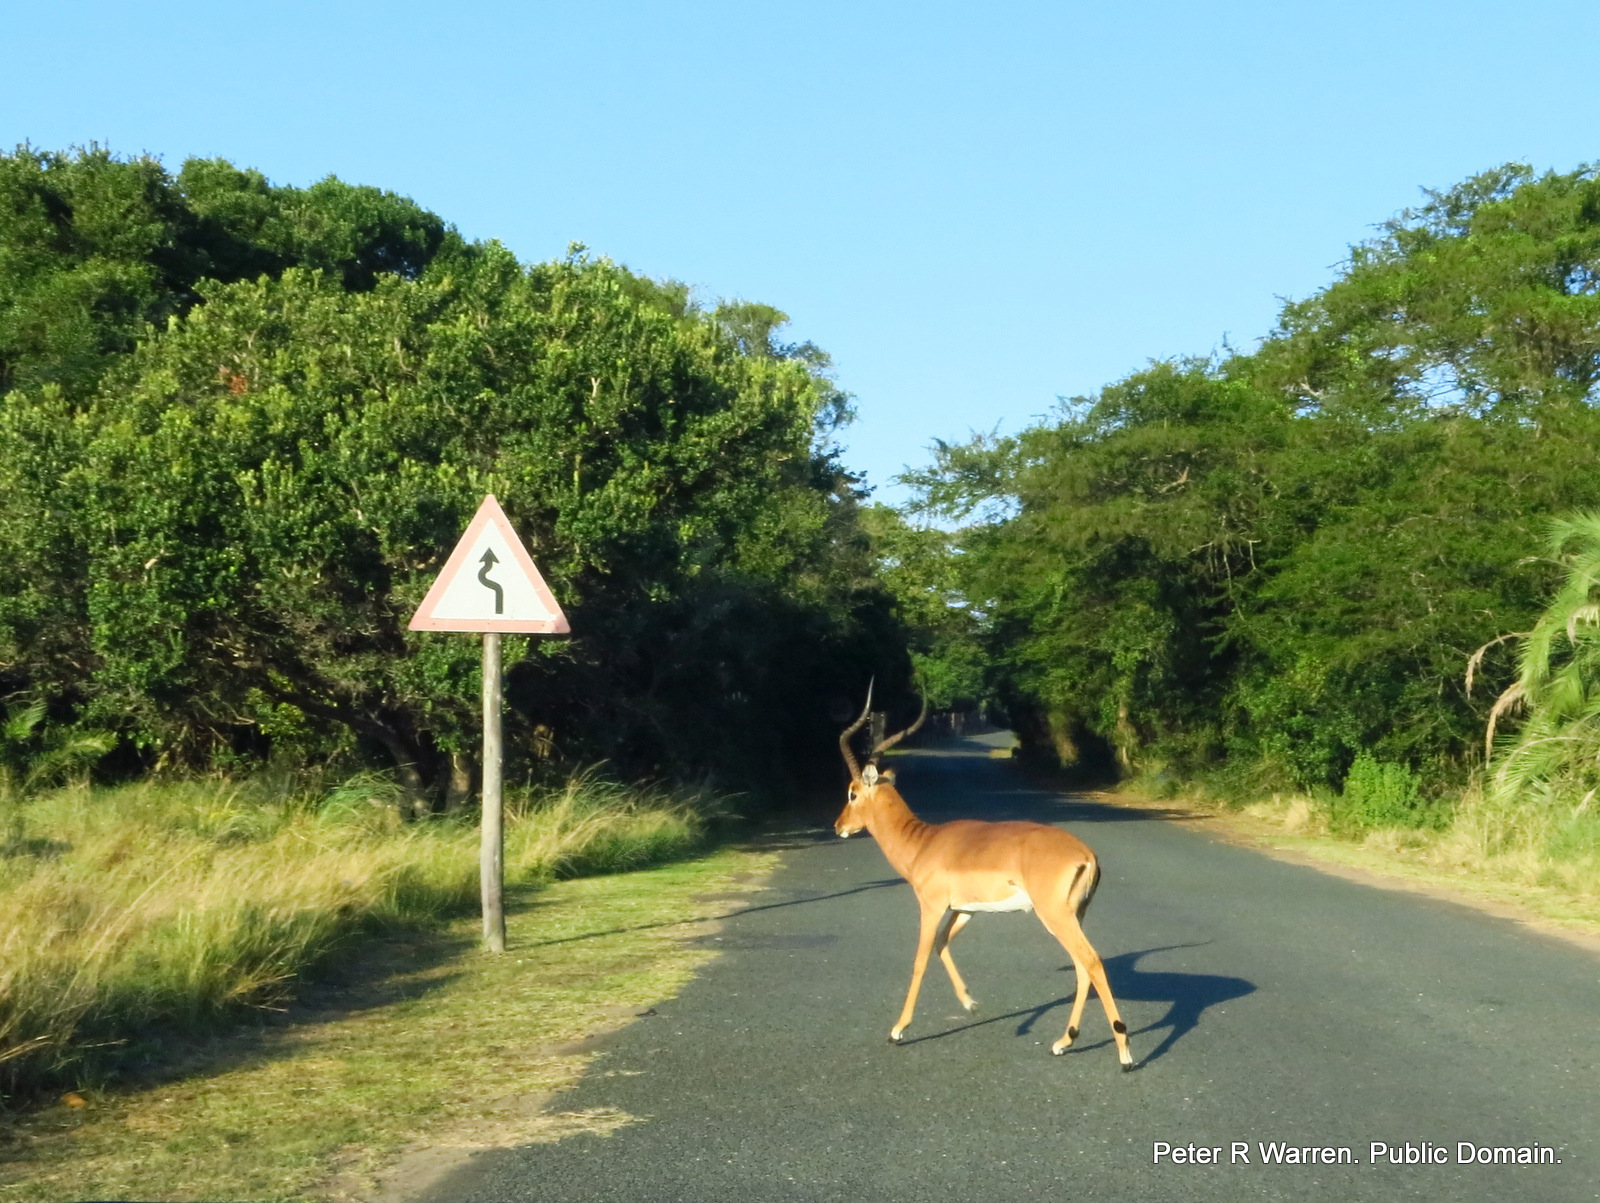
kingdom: Animalia
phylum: Chordata
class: Mammalia
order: Artiodactyla
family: Bovidae
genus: Aepyceros
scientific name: Aepyceros melampus
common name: Impala
